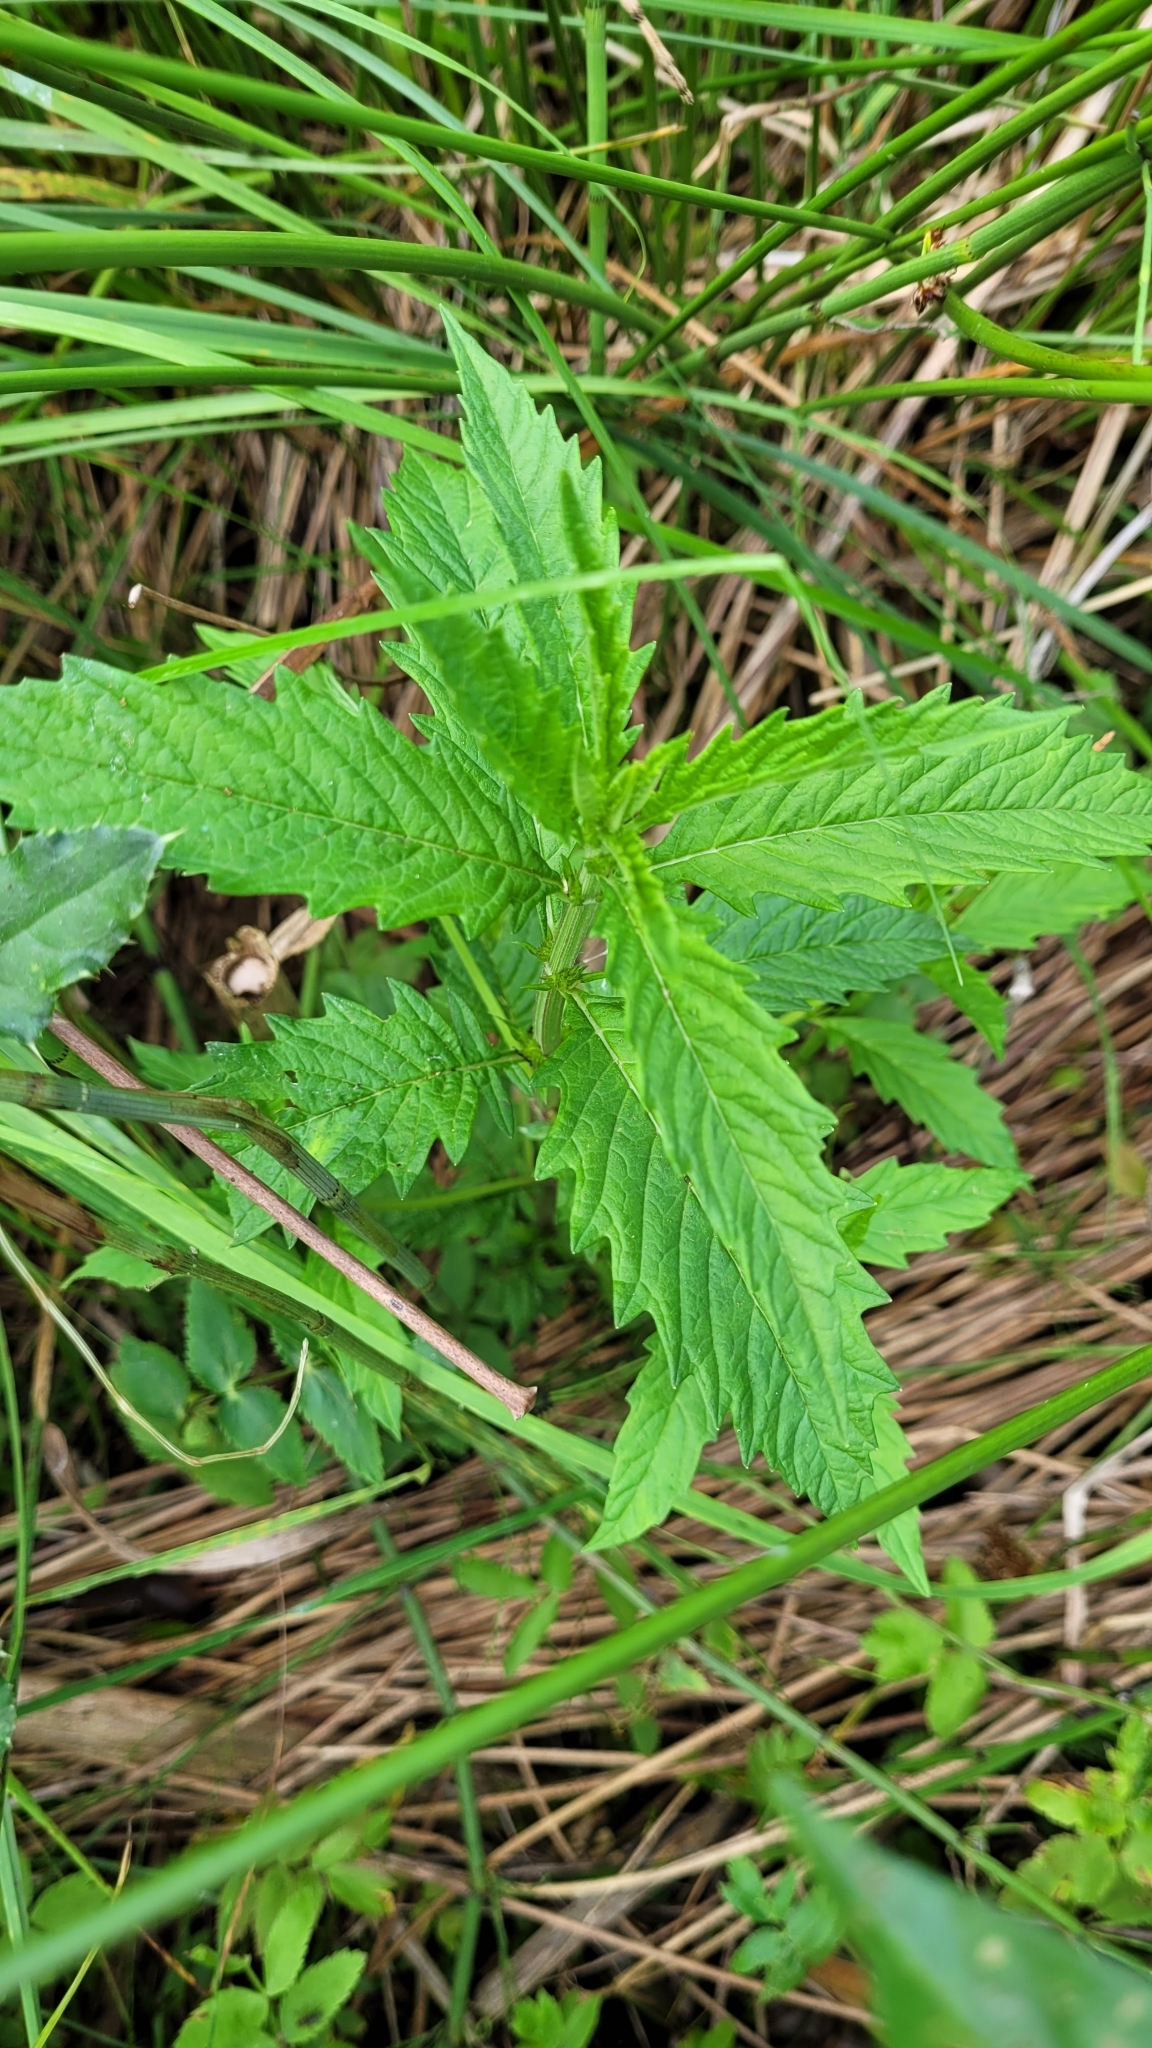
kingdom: Plantae
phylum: Tracheophyta
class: Magnoliopsida
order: Lamiales
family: Lamiaceae
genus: Lycopus
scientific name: Lycopus europaeus
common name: European bugleweed
